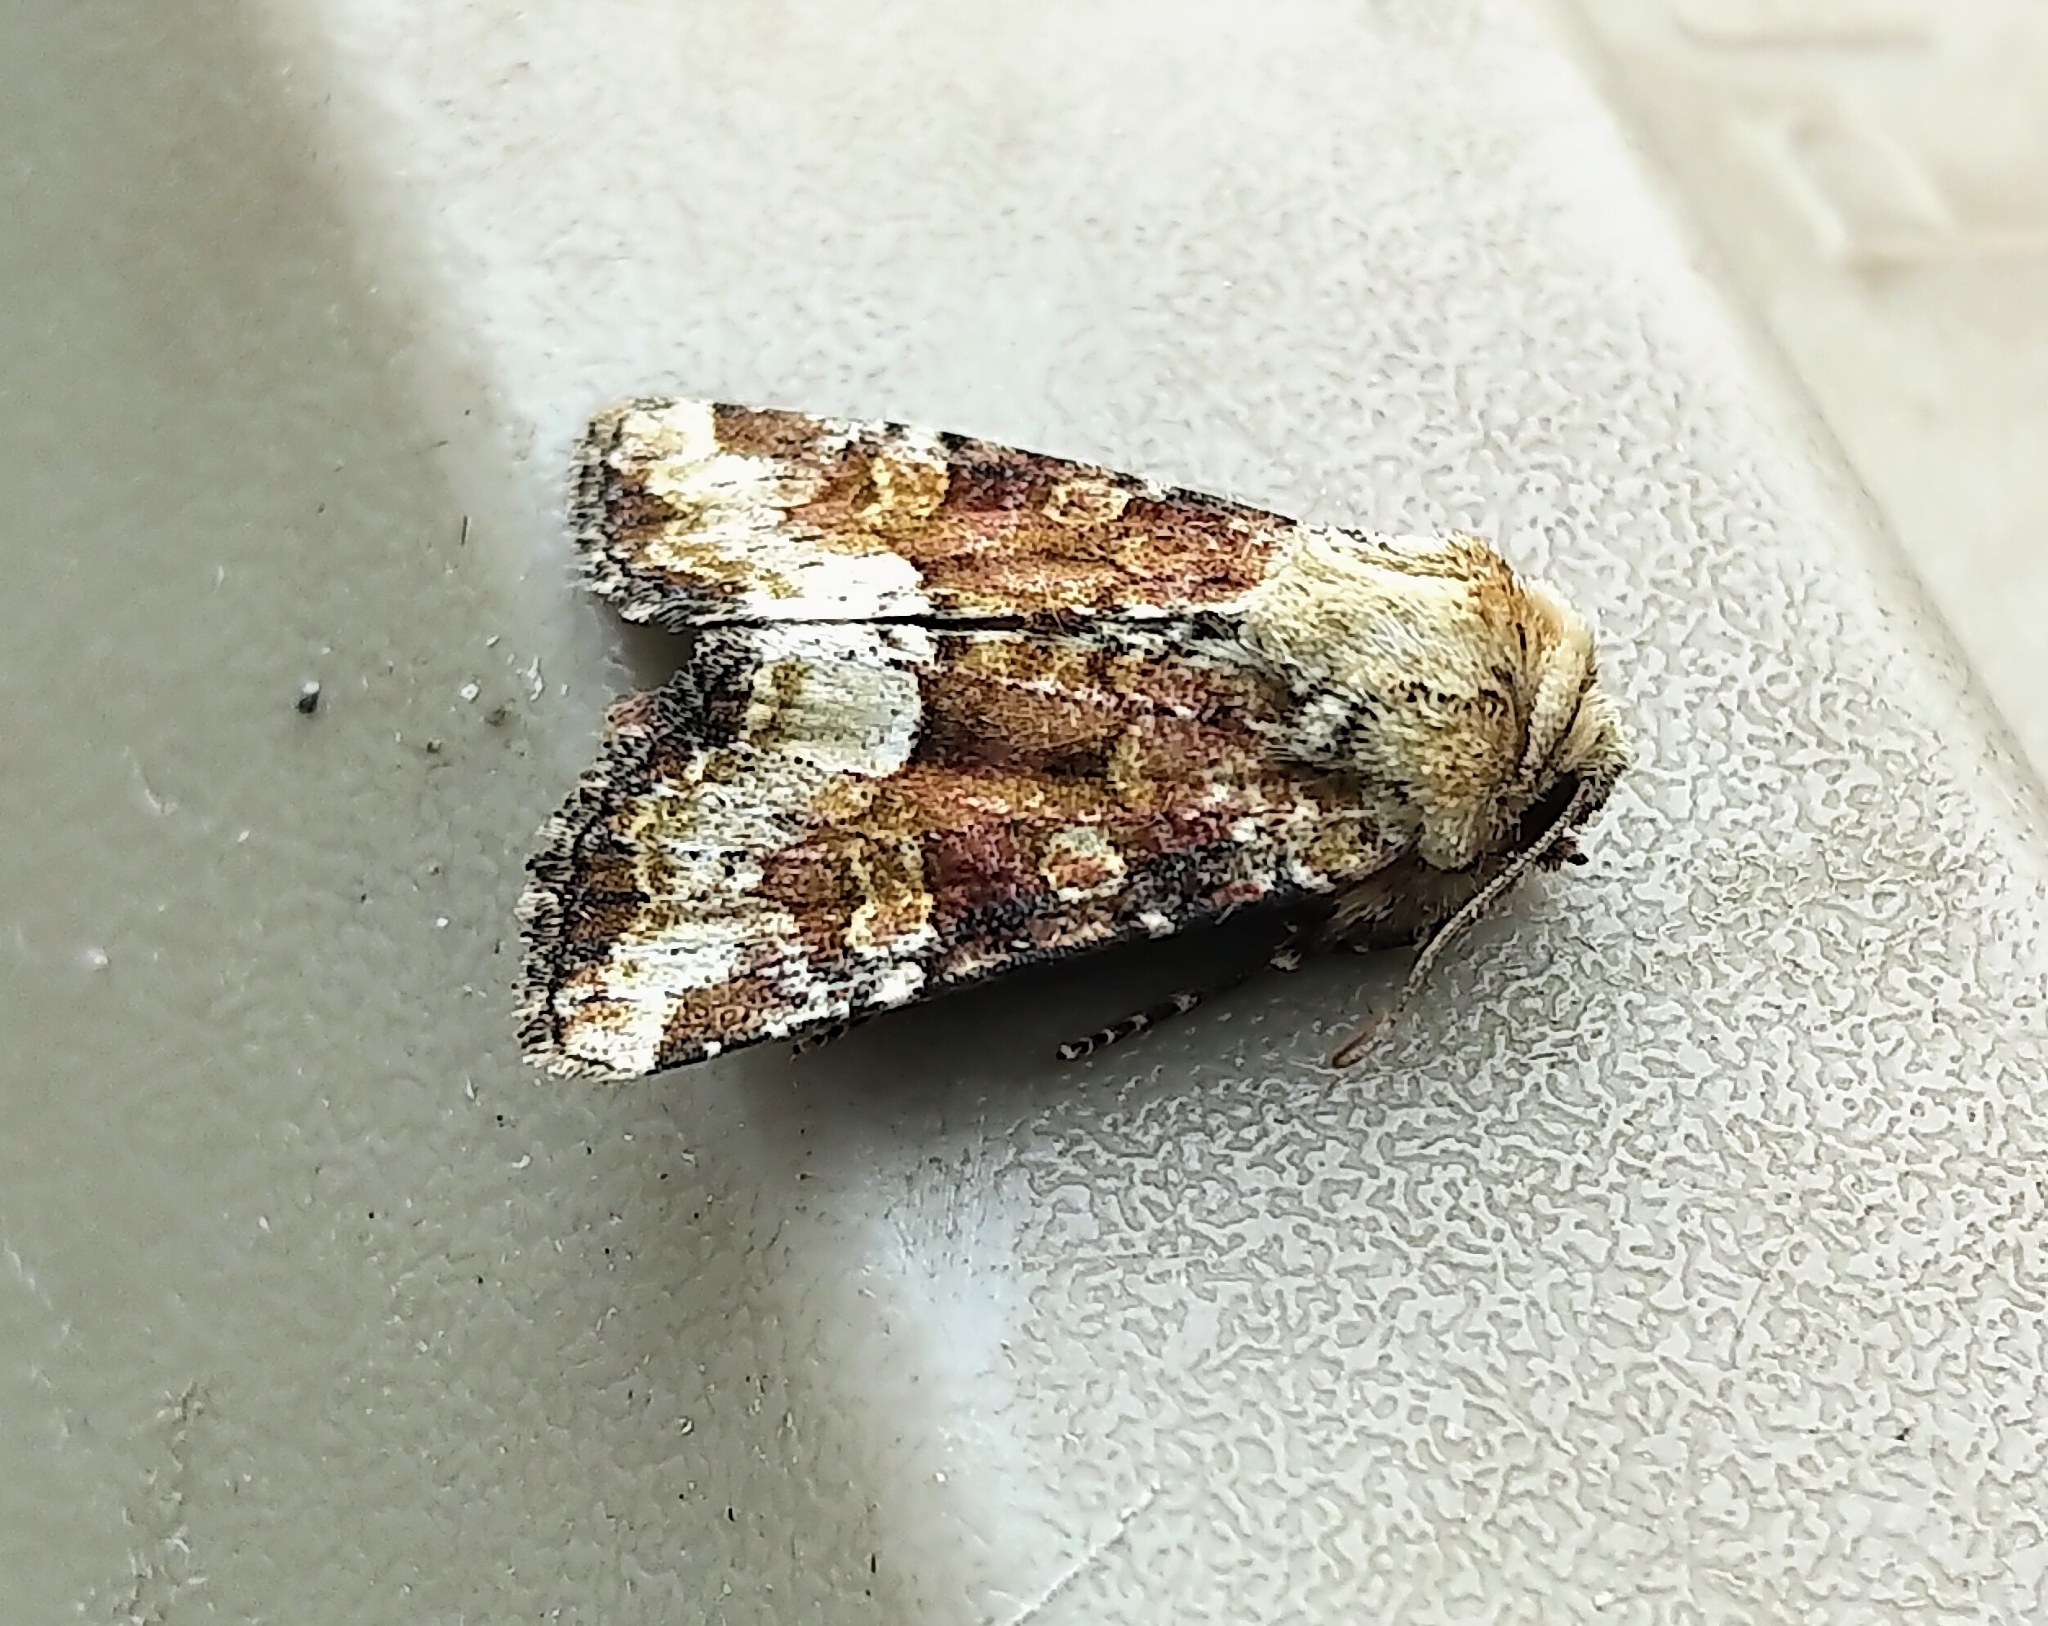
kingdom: Animalia
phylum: Arthropoda
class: Insecta
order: Lepidoptera
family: Noctuidae
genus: Oligia
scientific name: Oligia egens
